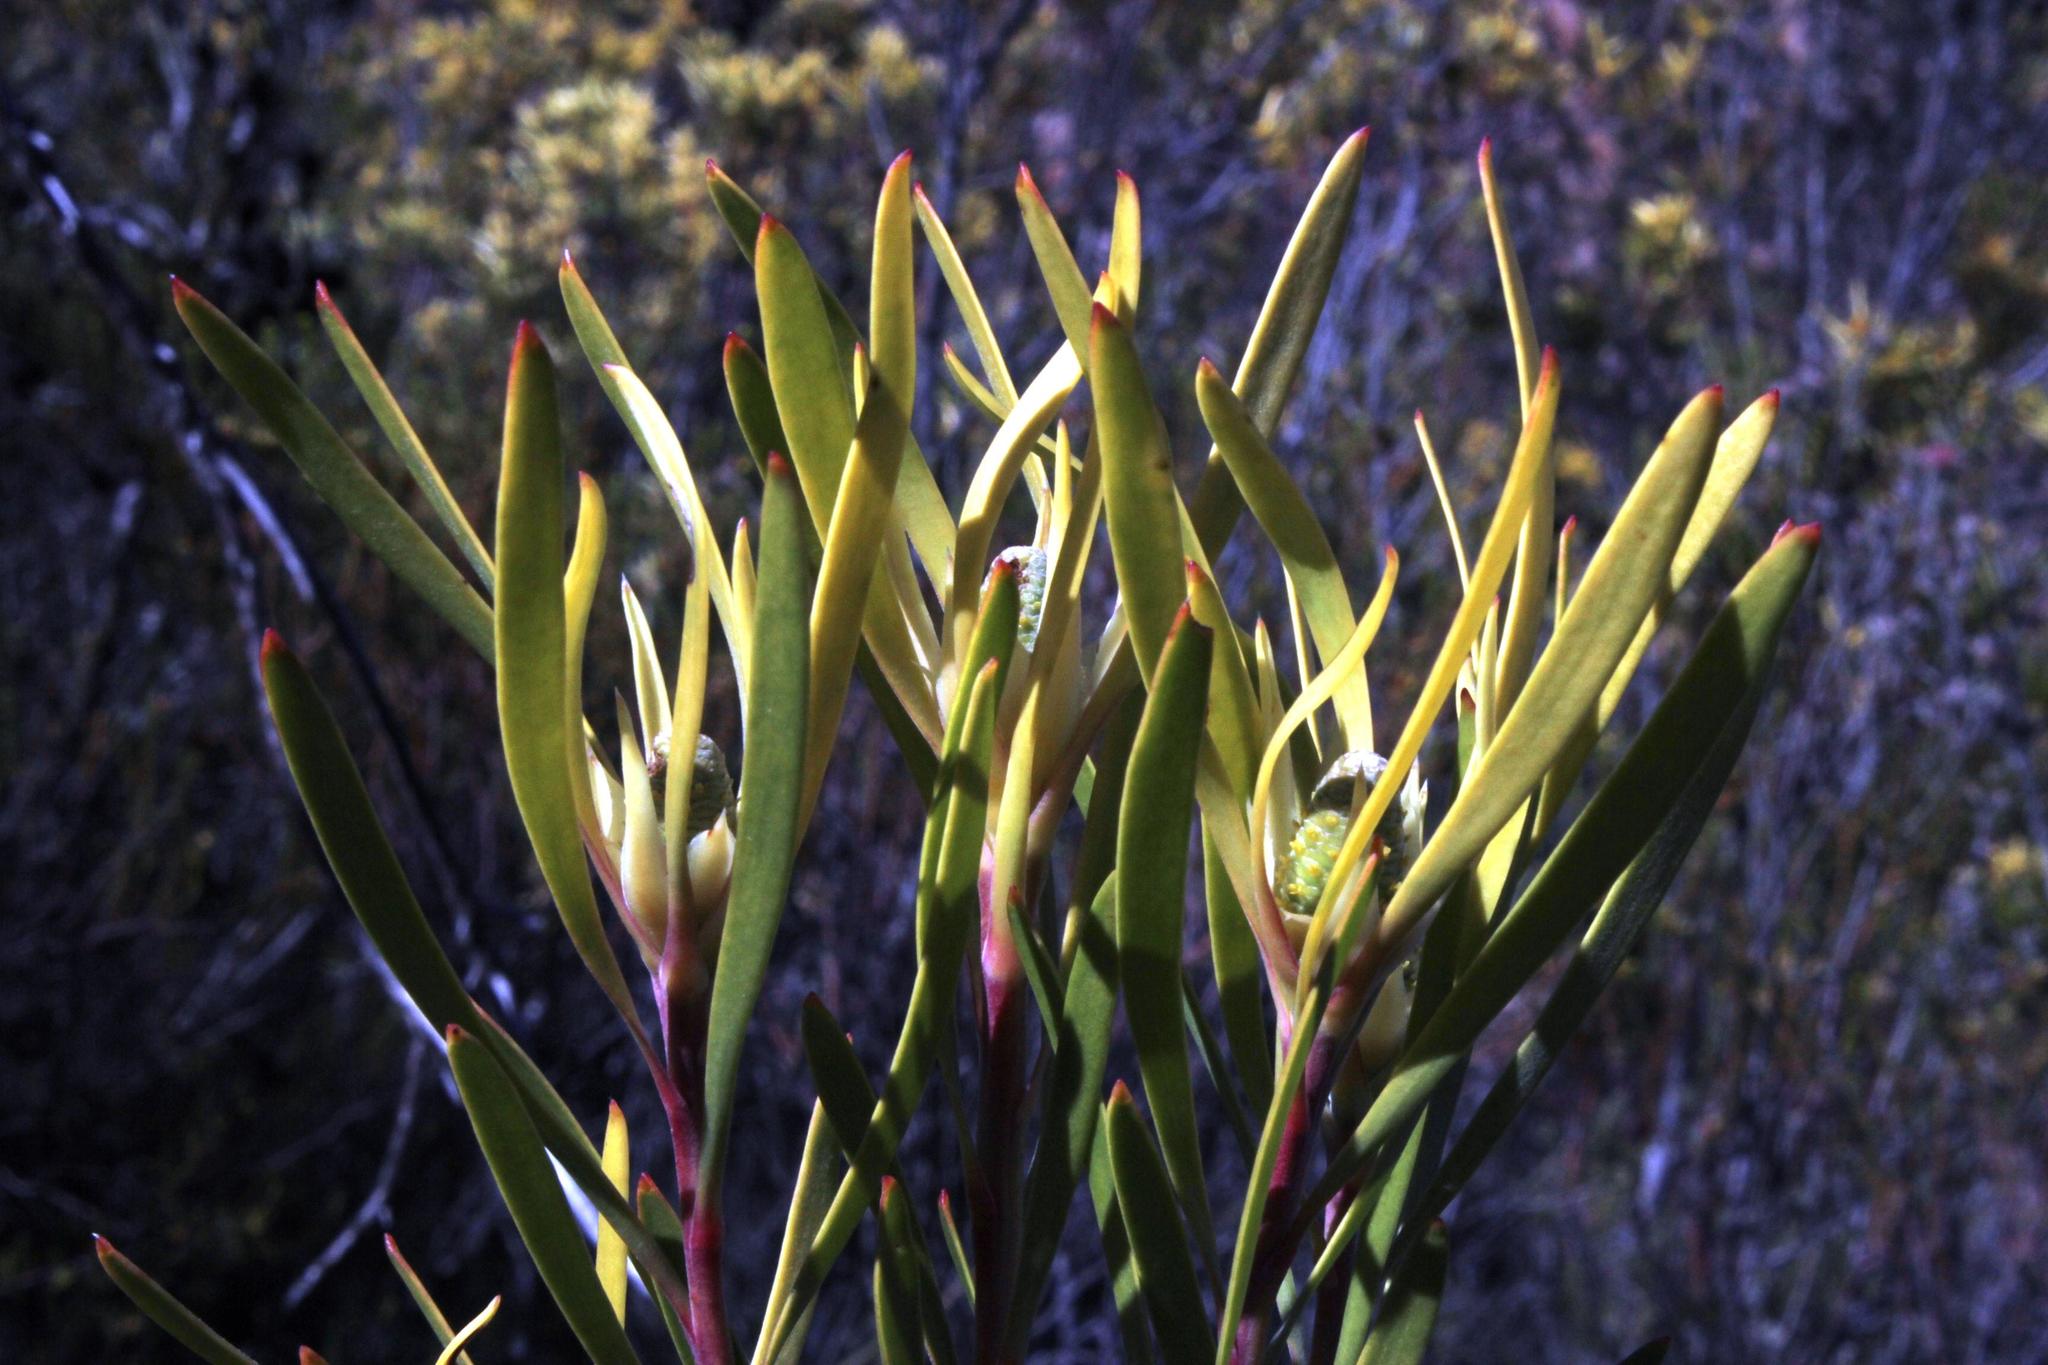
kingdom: Plantae
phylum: Tracheophyta
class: Magnoliopsida
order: Proteales
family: Proteaceae
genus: Leucadendron
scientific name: Leucadendron eucalyptifolium
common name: Gum-leaved conebush
